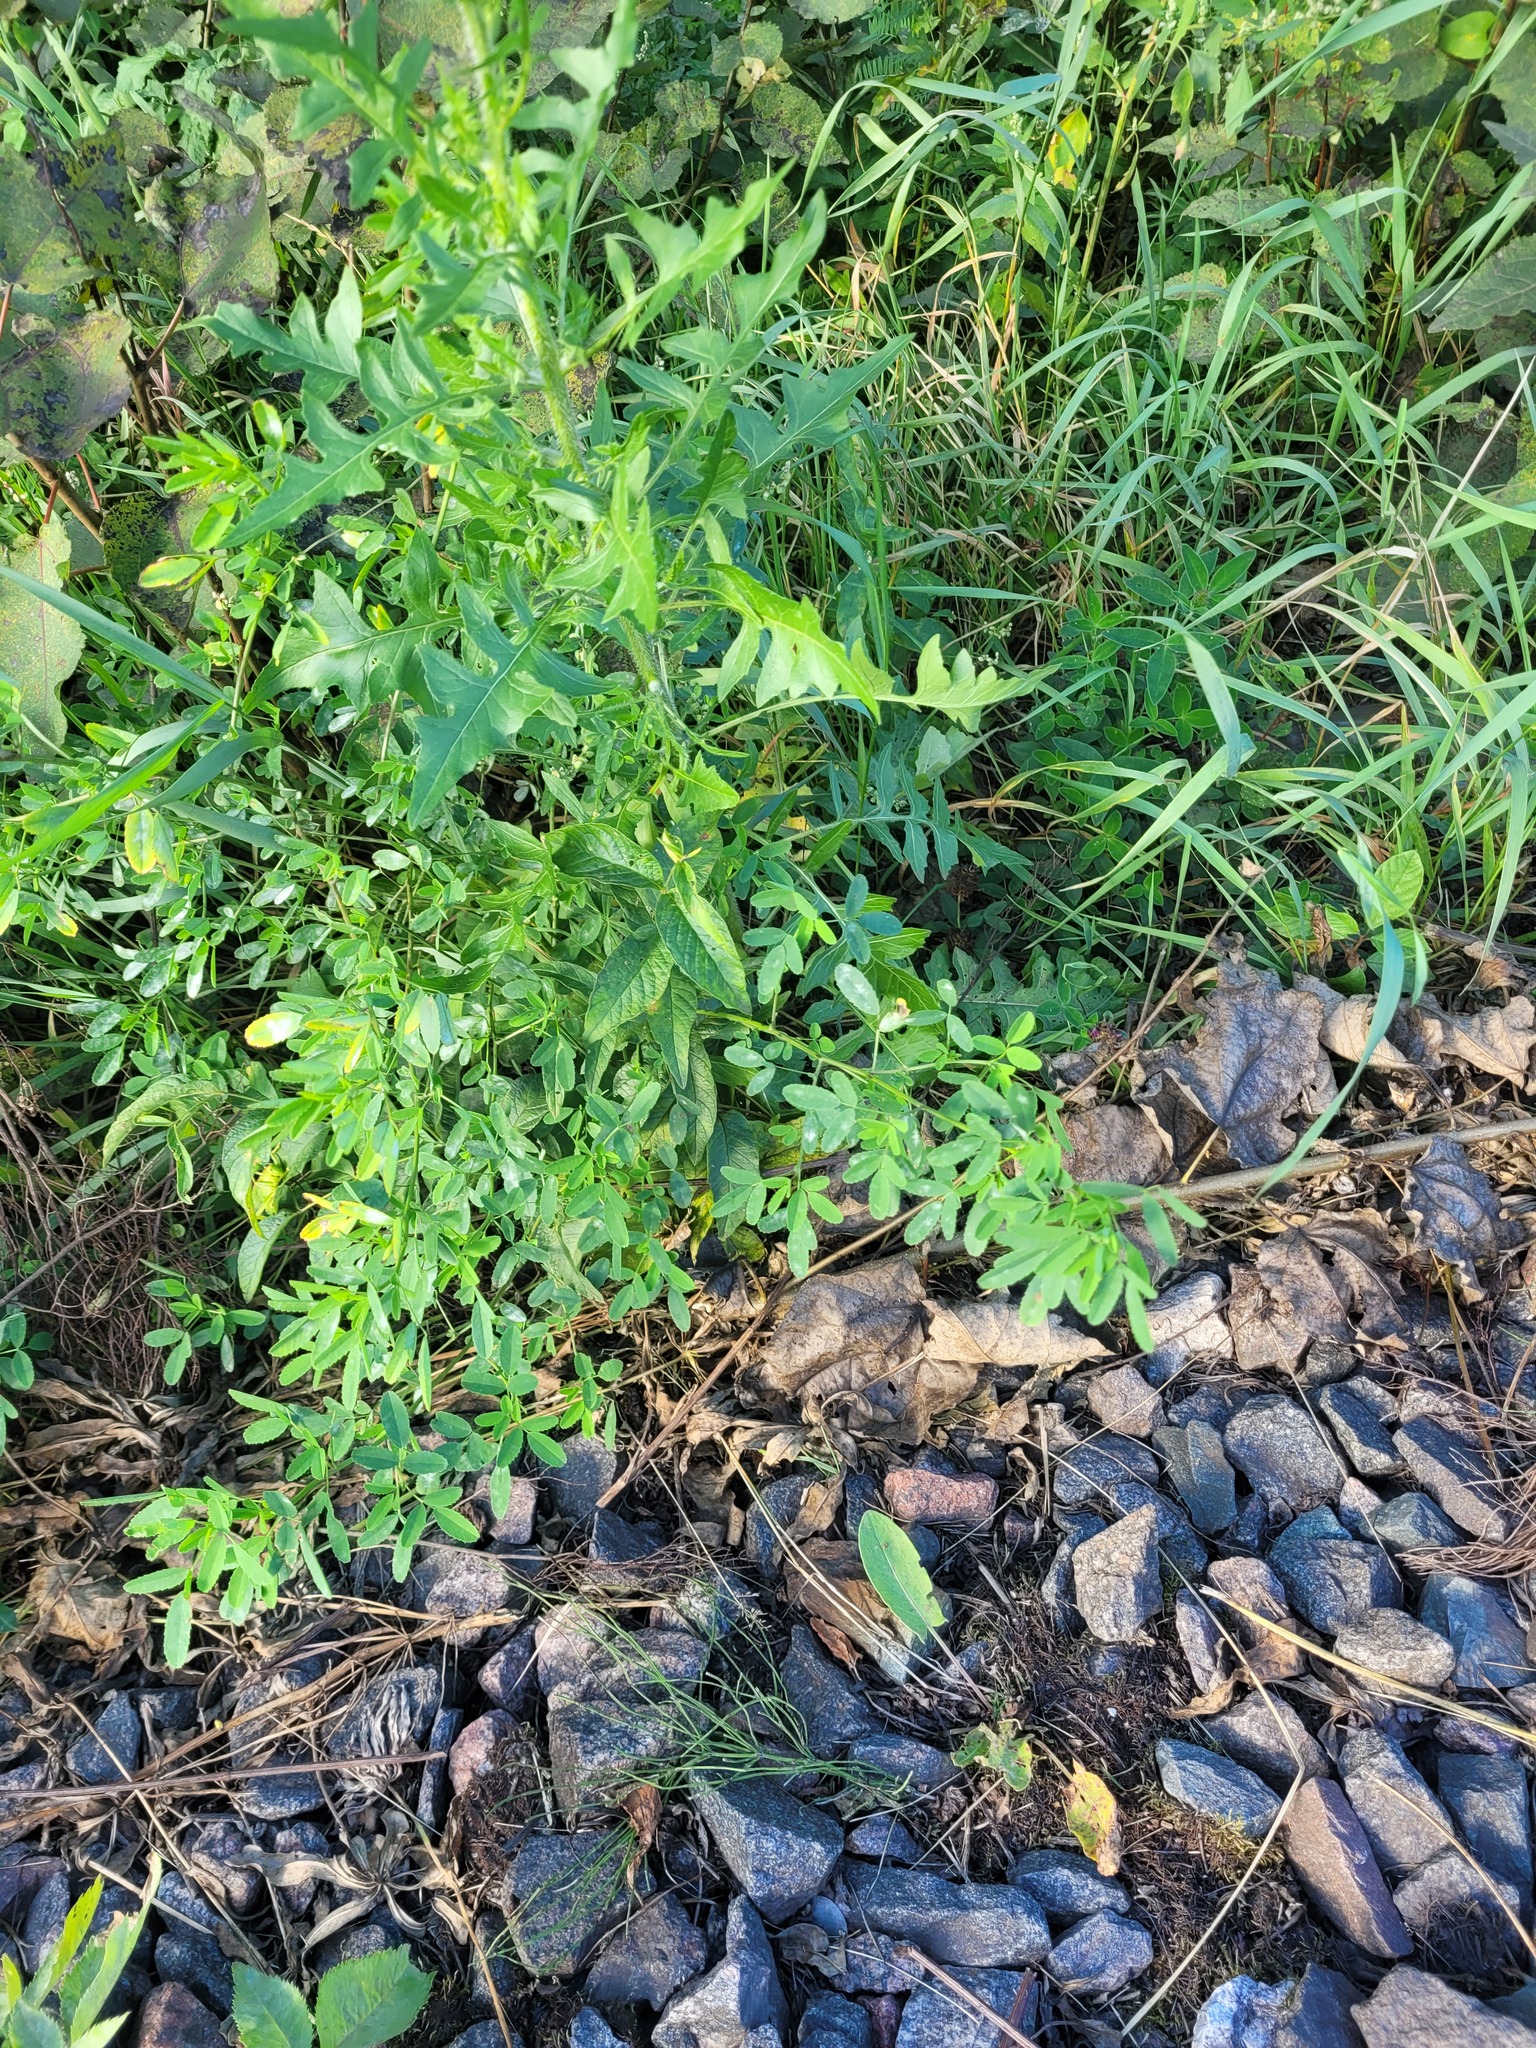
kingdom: Plantae
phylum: Tracheophyta
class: Magnoliopsida
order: Ericales
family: Primulaceae
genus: Lysimachia
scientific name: Lysimachia vulgaris
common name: Yellow loosestrife
